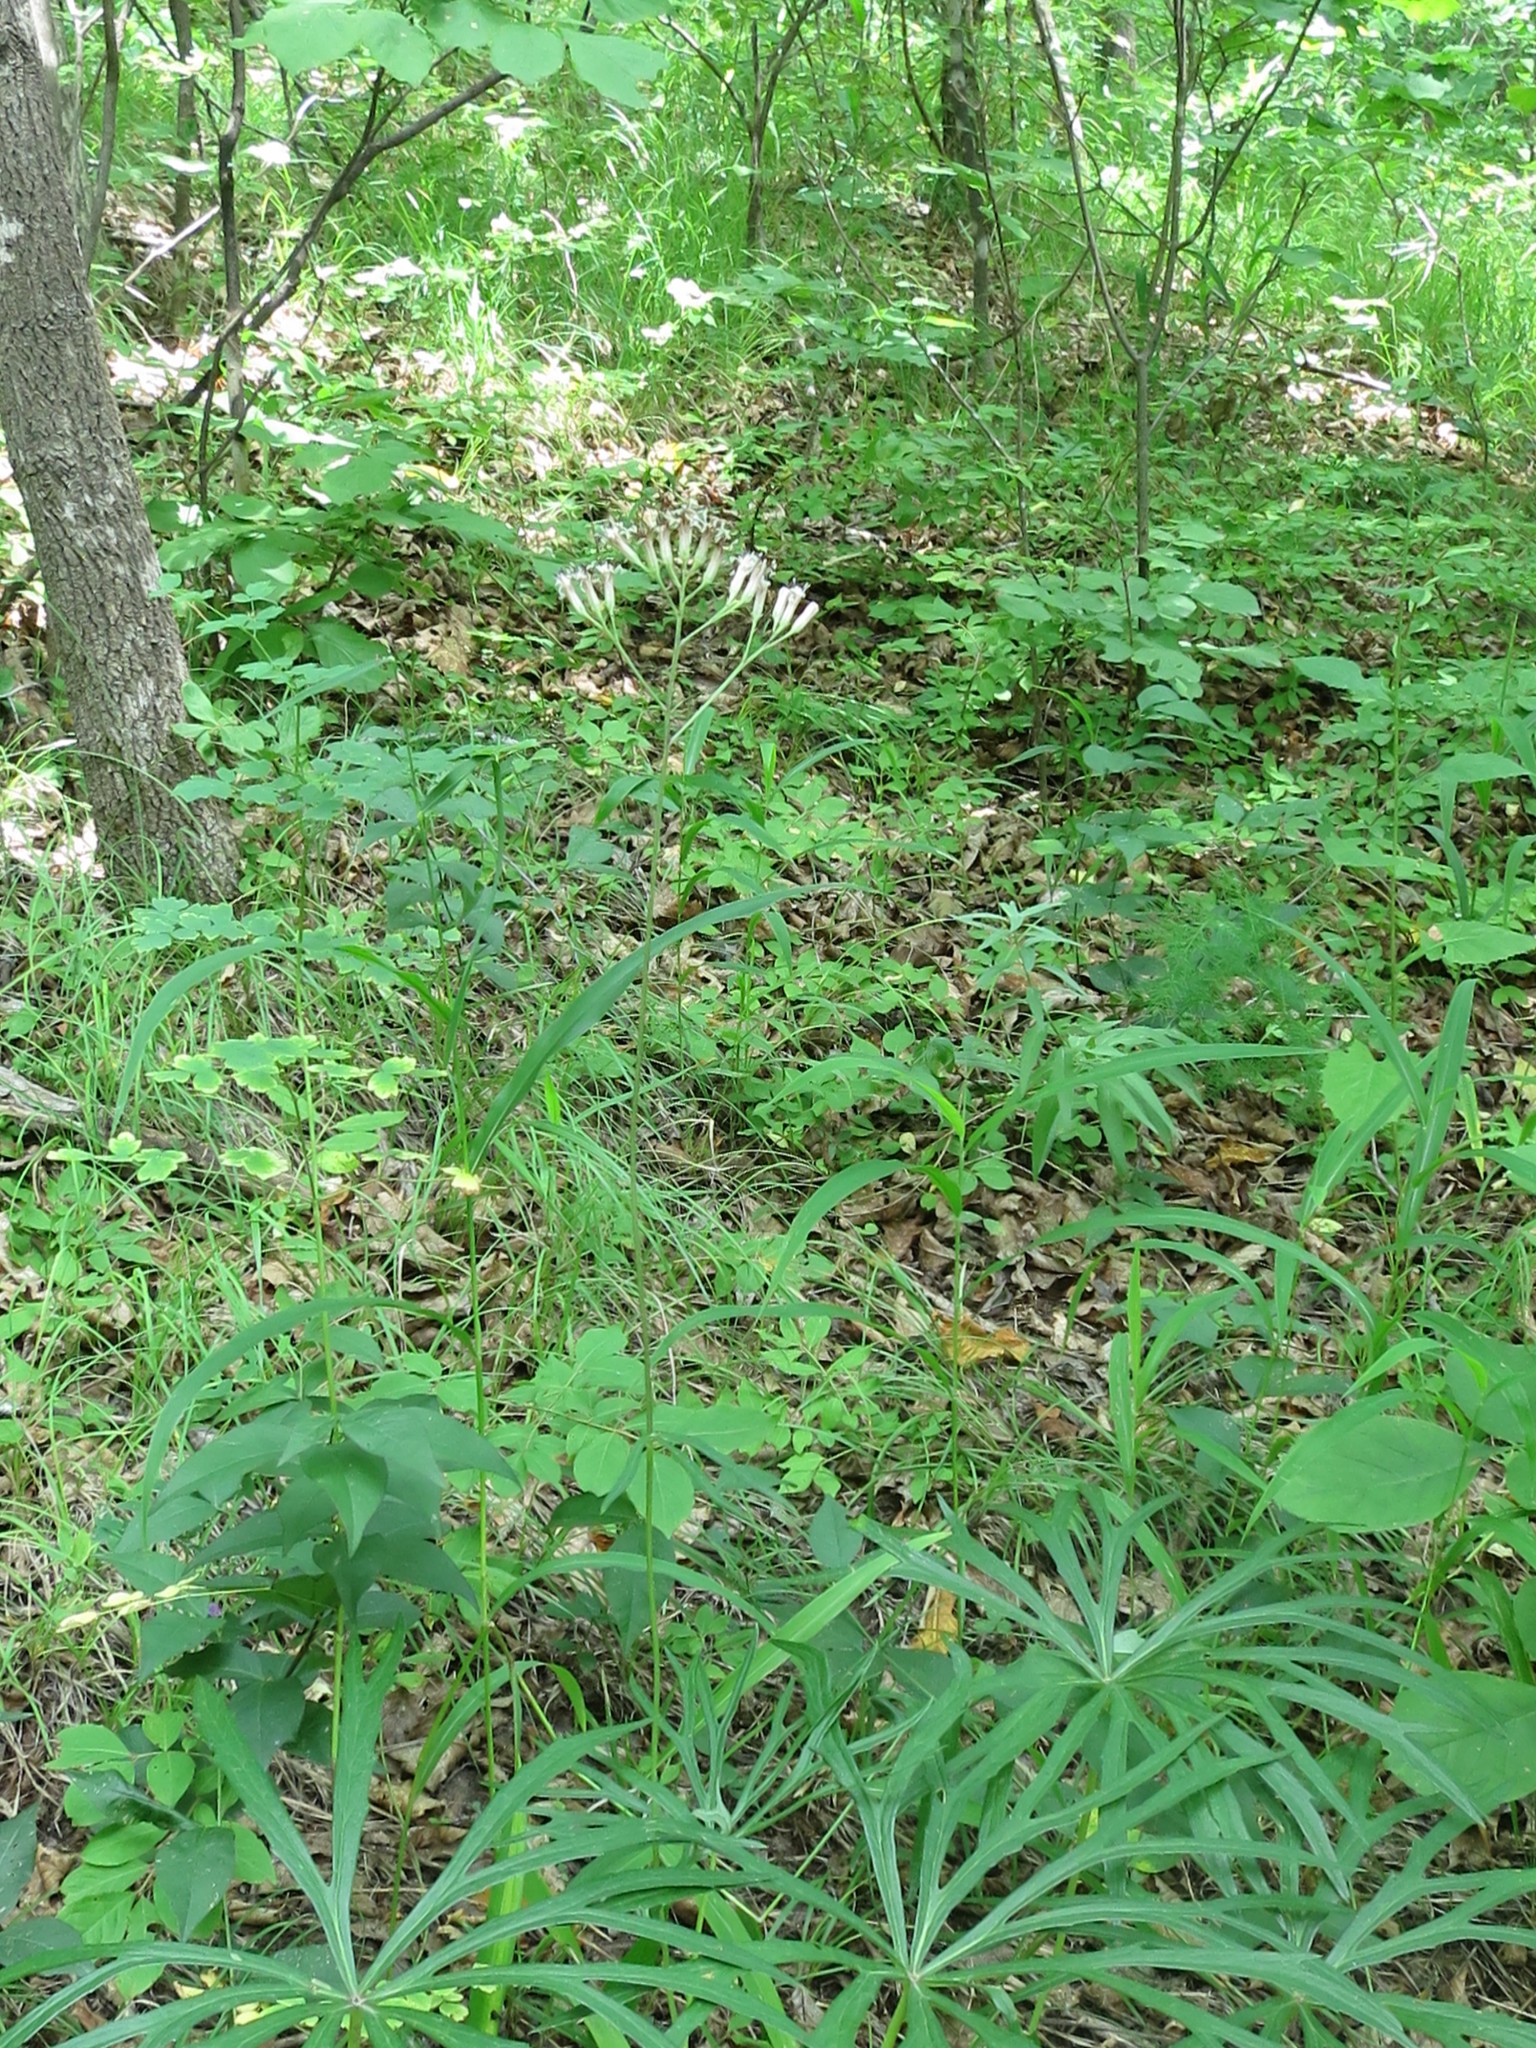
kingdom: Plantae
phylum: Tracheophyta
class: Magnoliopsida
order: Asterales
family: Asteraceae
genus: Syneilesis
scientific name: Syneilesis aconitifolia
